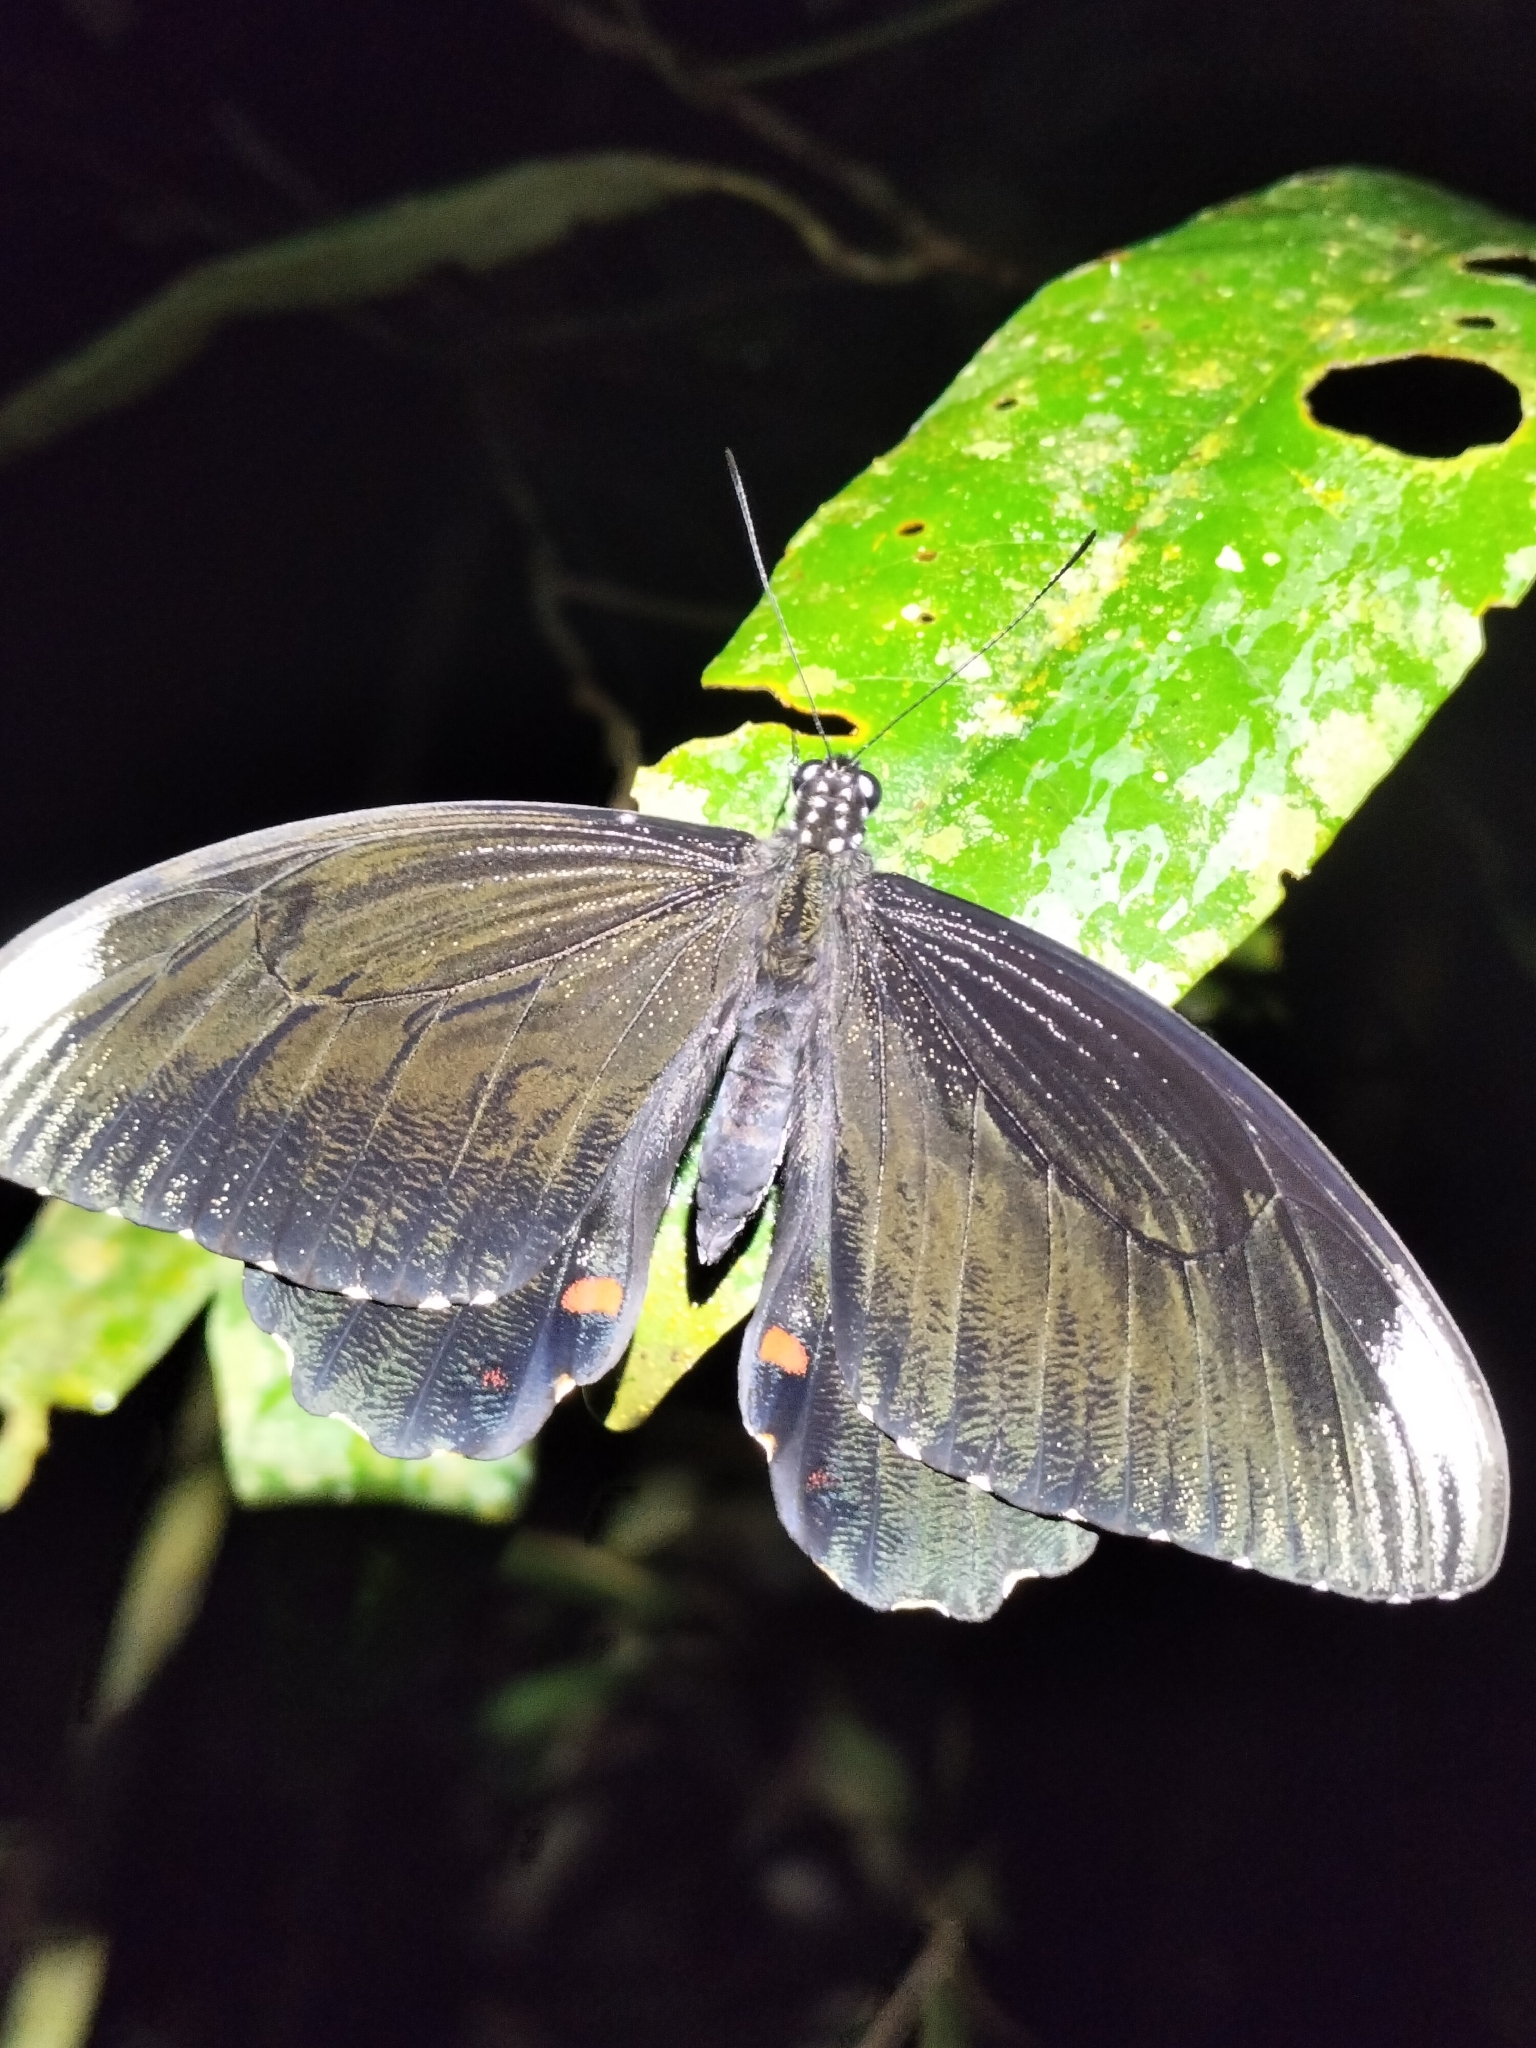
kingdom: Animalia
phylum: Arthropoda
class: Insecta
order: Lepidoptera
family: Papilionidae
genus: Papilio
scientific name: Papilio ambrax
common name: Ambrax butterfly
